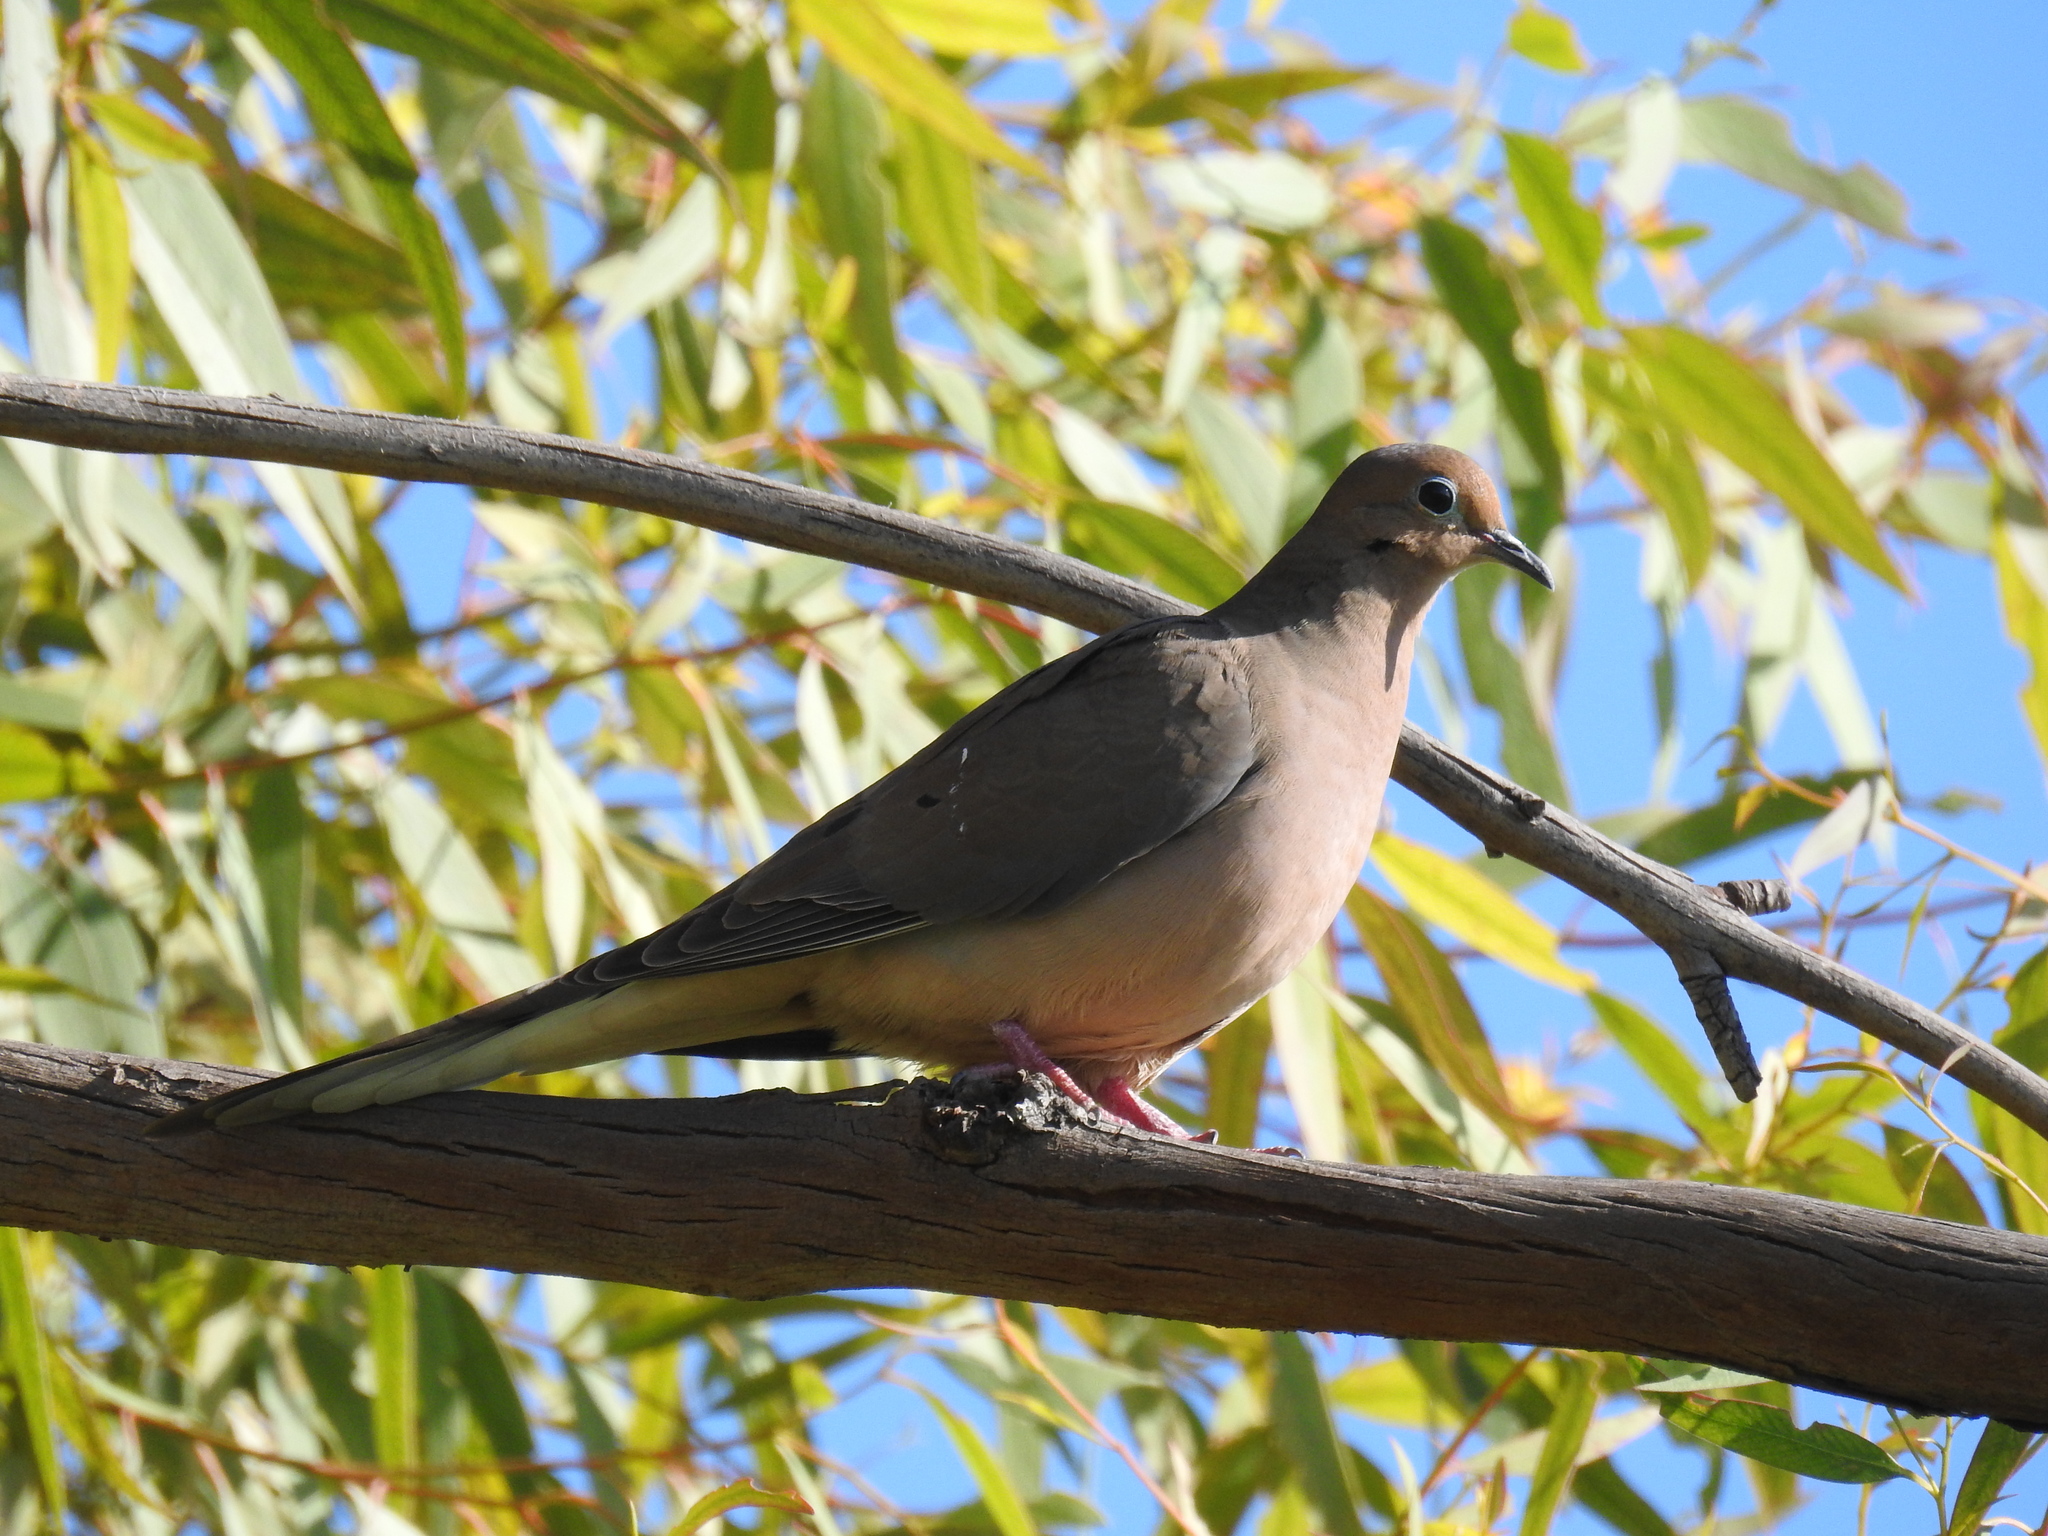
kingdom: Animalia
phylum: Chordata
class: Aves
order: Columbiformes
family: Columbidae
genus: Zenaida
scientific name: Zenaida macroura
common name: Mourning dove
